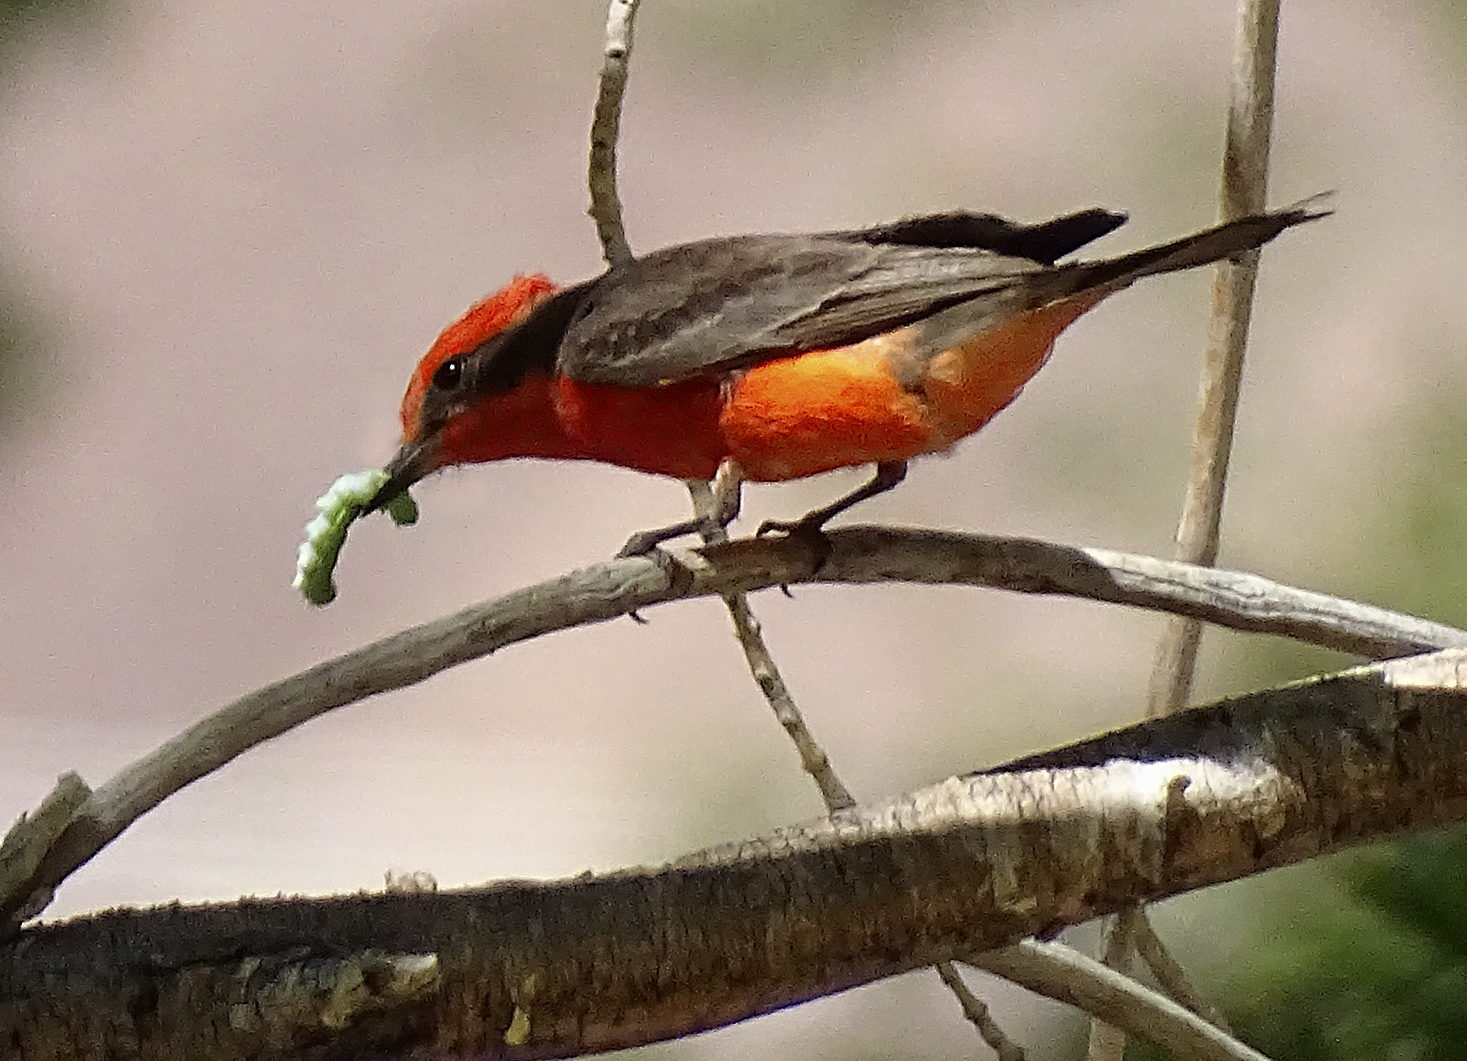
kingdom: Animalia
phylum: Chordata
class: Aves
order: Passeriformes
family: Tyrannidae
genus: Pyrocephalus
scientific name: Pyrocephalus rubinus
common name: Vermilion flycatcher
